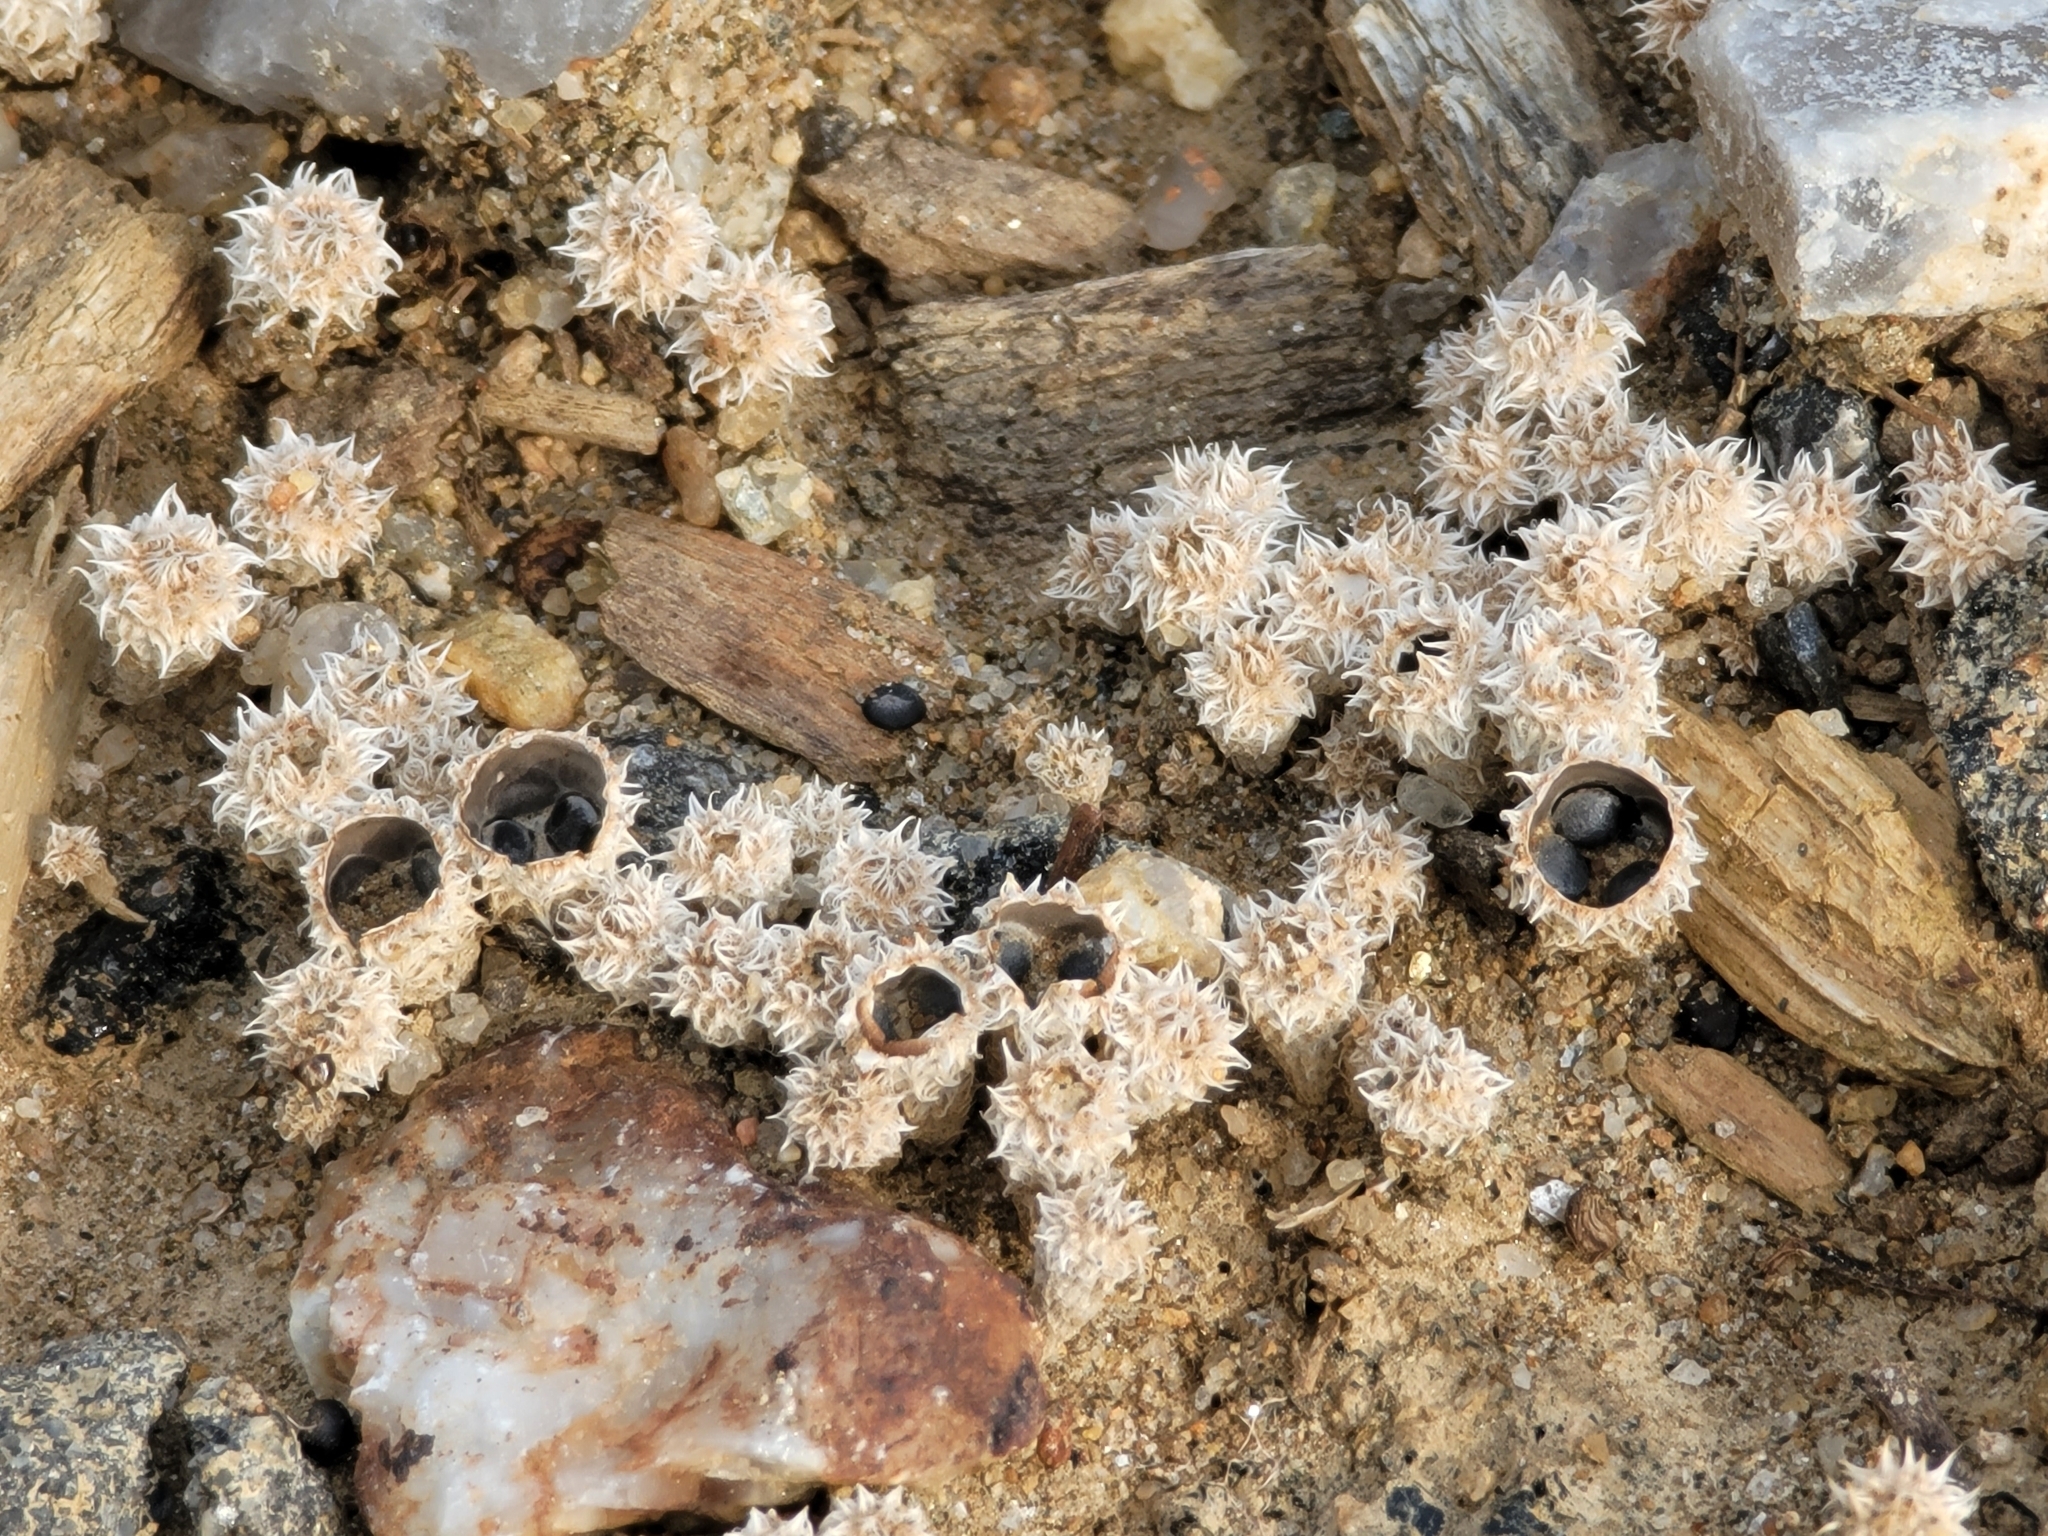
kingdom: Fungi
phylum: Basidiomycota
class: Agaricomycetes
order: Agaricales
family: Agaricaceae
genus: Cyathus
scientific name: Cyathus stercoreus
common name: Dung bird's nest
